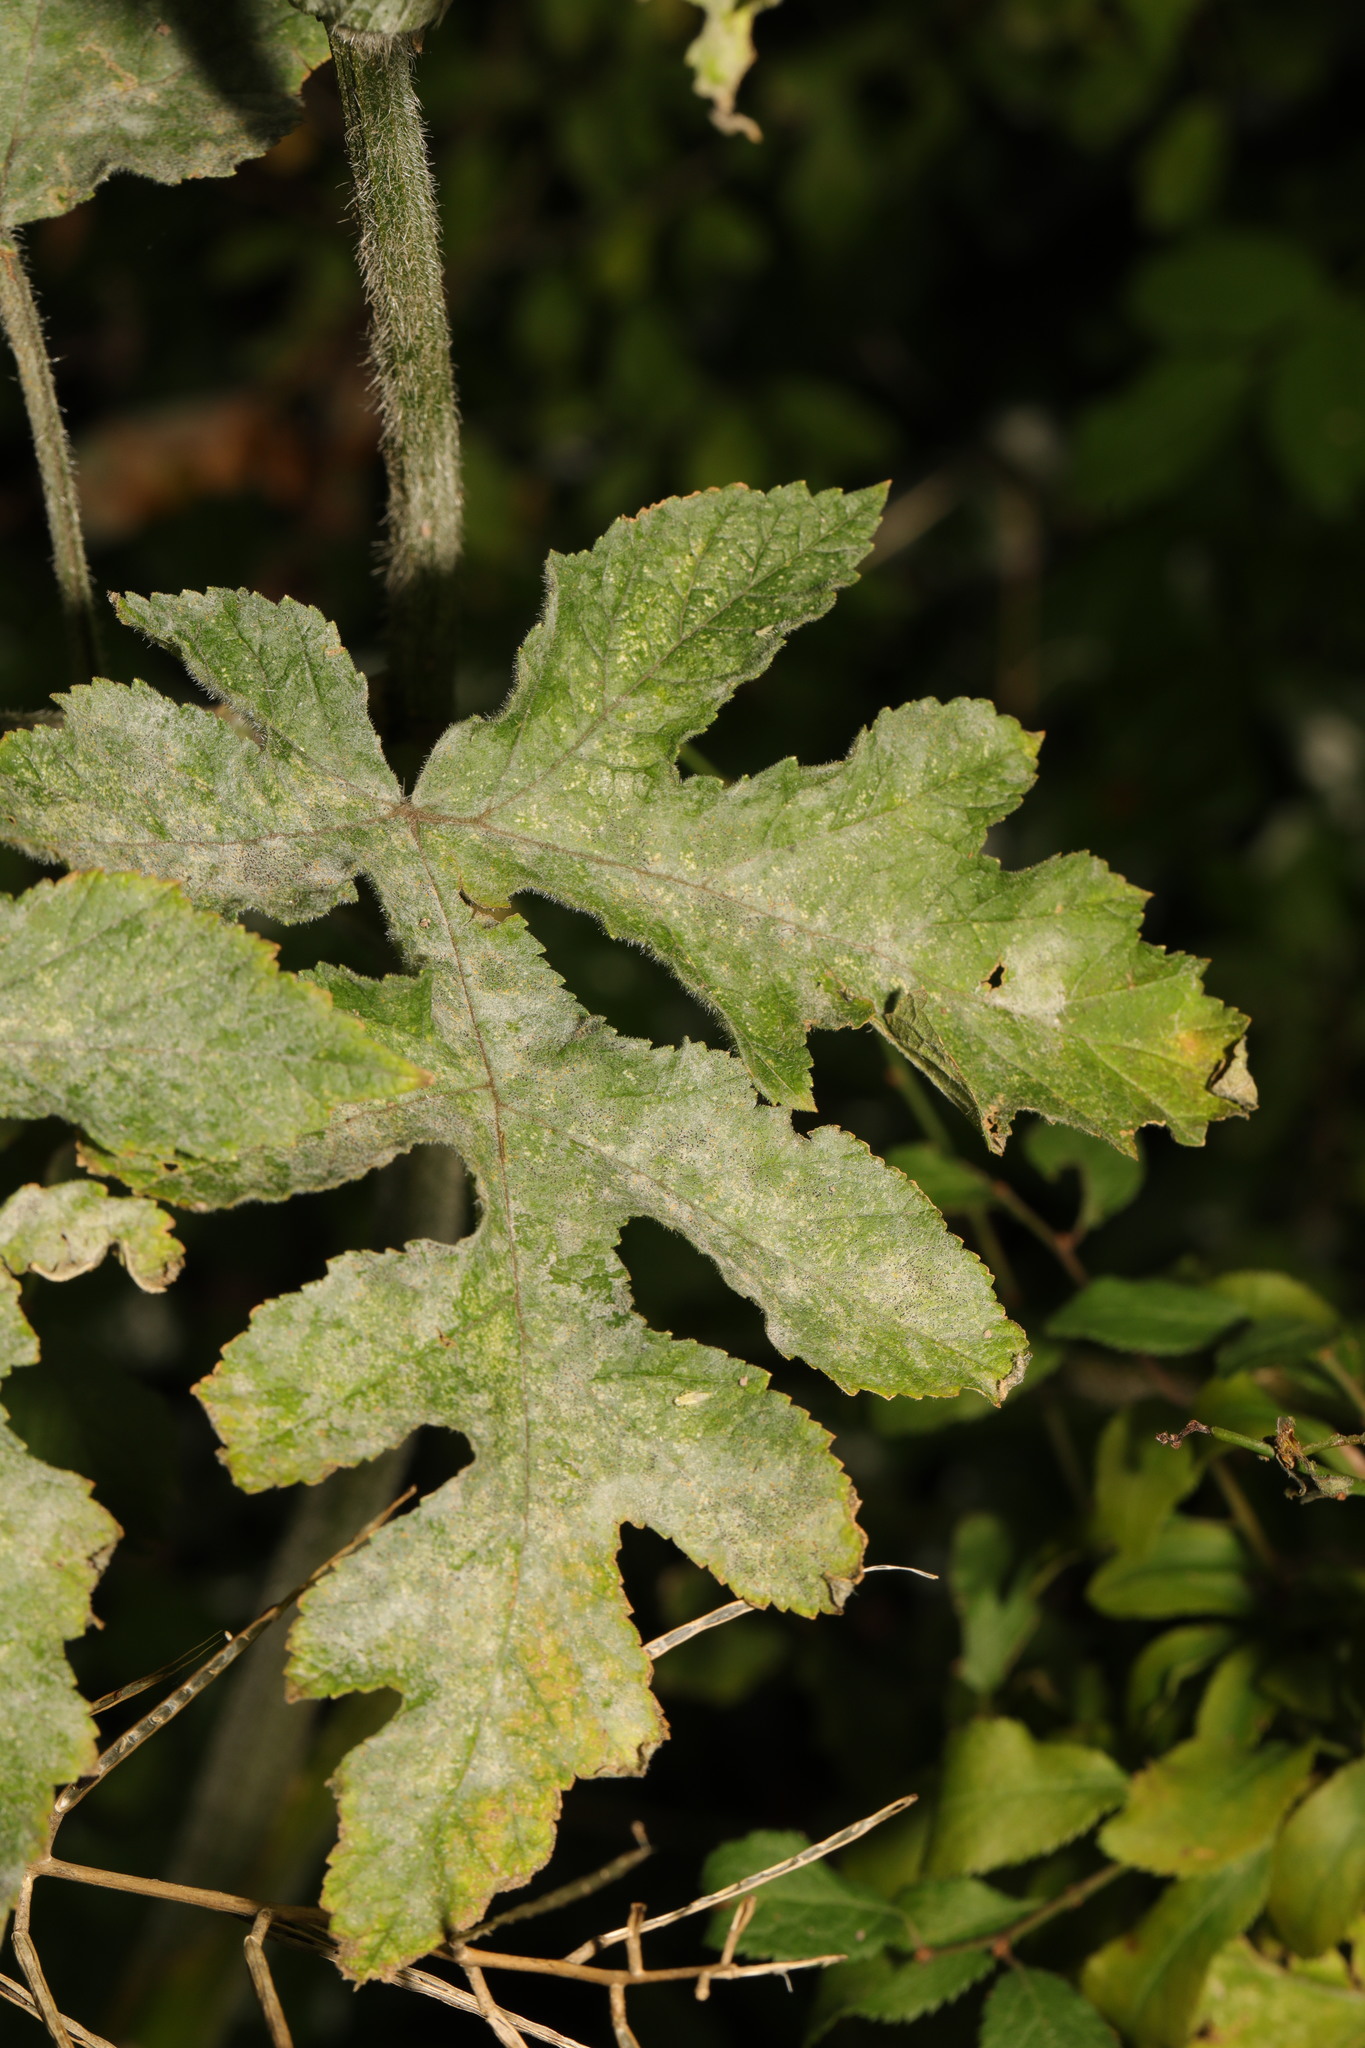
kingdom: Fungi
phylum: Ascomycota
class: Leotiomycetes
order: Helotiales
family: Erysiphaceae
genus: Erysiphe
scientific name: Erysiphe heraclei
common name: Umbellifer mildew
